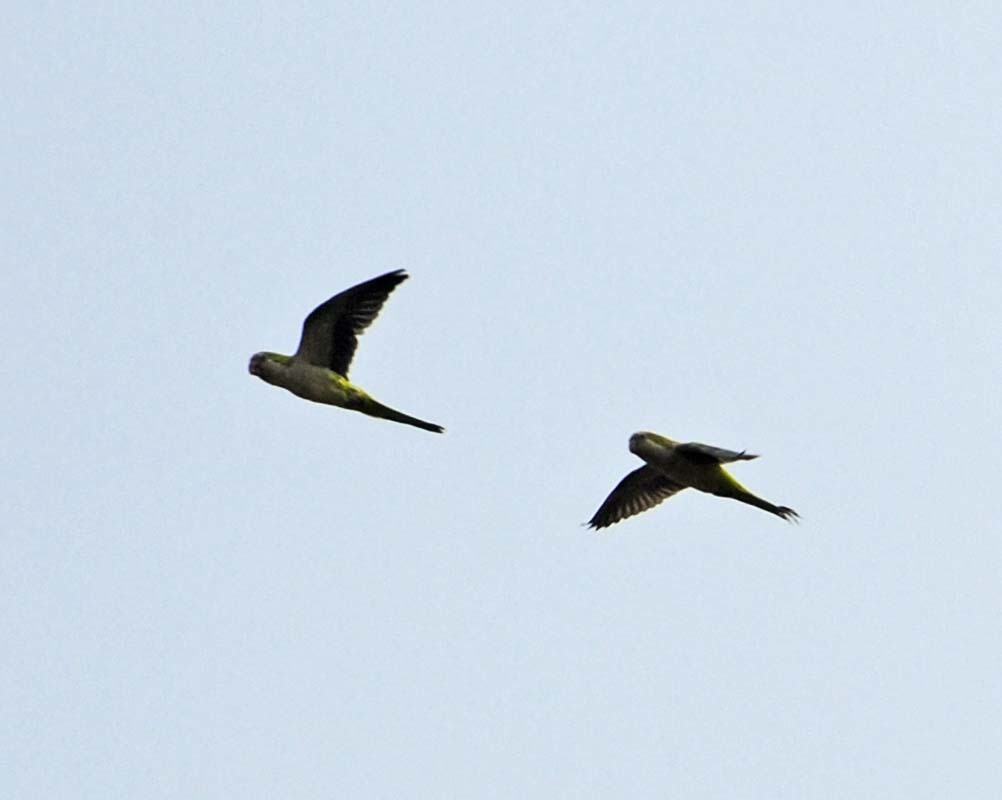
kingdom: Animalia
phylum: Chordata
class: Aves
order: Psittaciformes
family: Psittacidae
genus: Myiopsitta
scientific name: Myiopsitta monachus
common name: Monk parakeet
